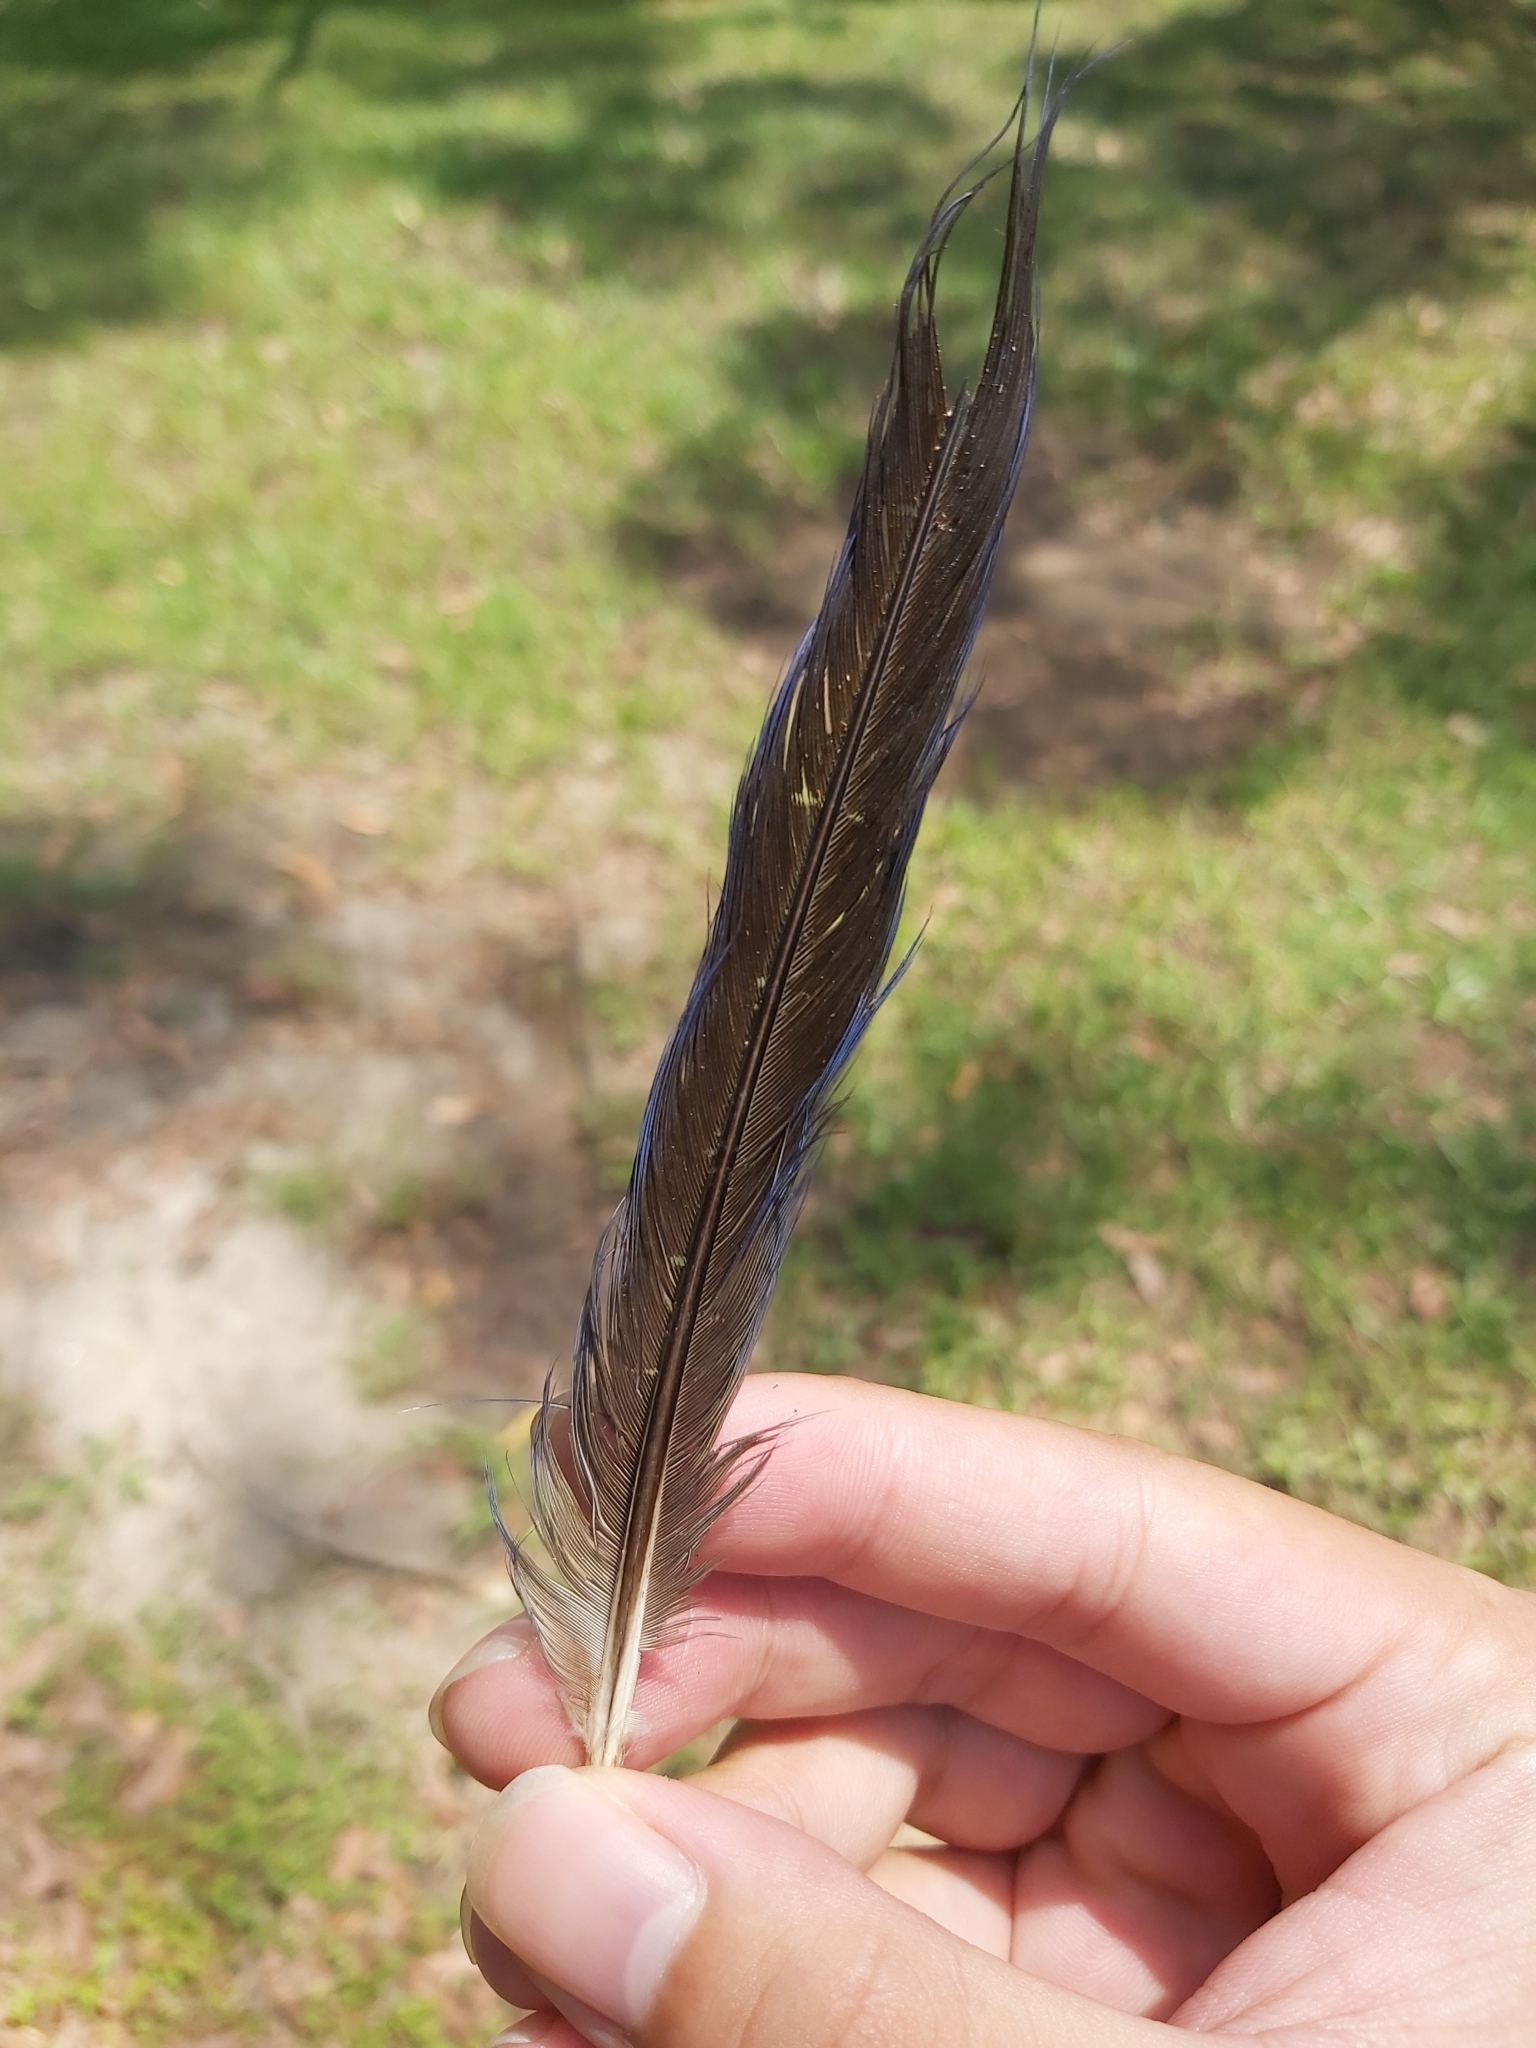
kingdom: Animalia
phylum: Chordata
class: Aves
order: Psittaciformes
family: Psittacidae
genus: Platycercus
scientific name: Platycercus elegans
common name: Crimson rosella
